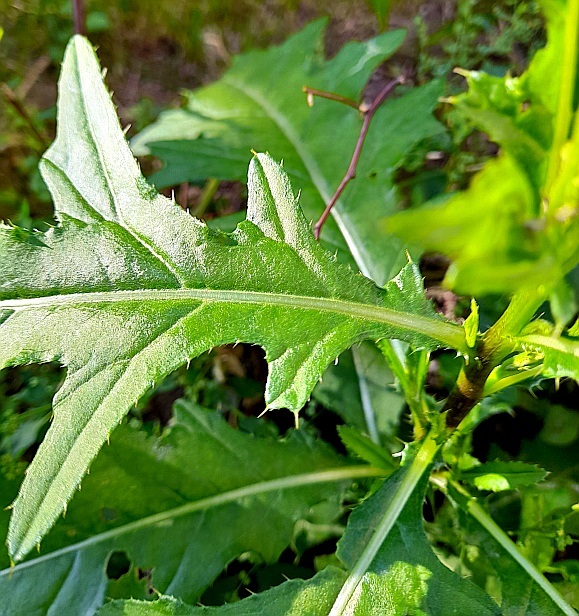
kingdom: Plantae
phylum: Tracheophyta
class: Magnoliopsida
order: Asterales
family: Asteraceae
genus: Cirsium
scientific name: Cirsium arvense
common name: Creeping thistle
